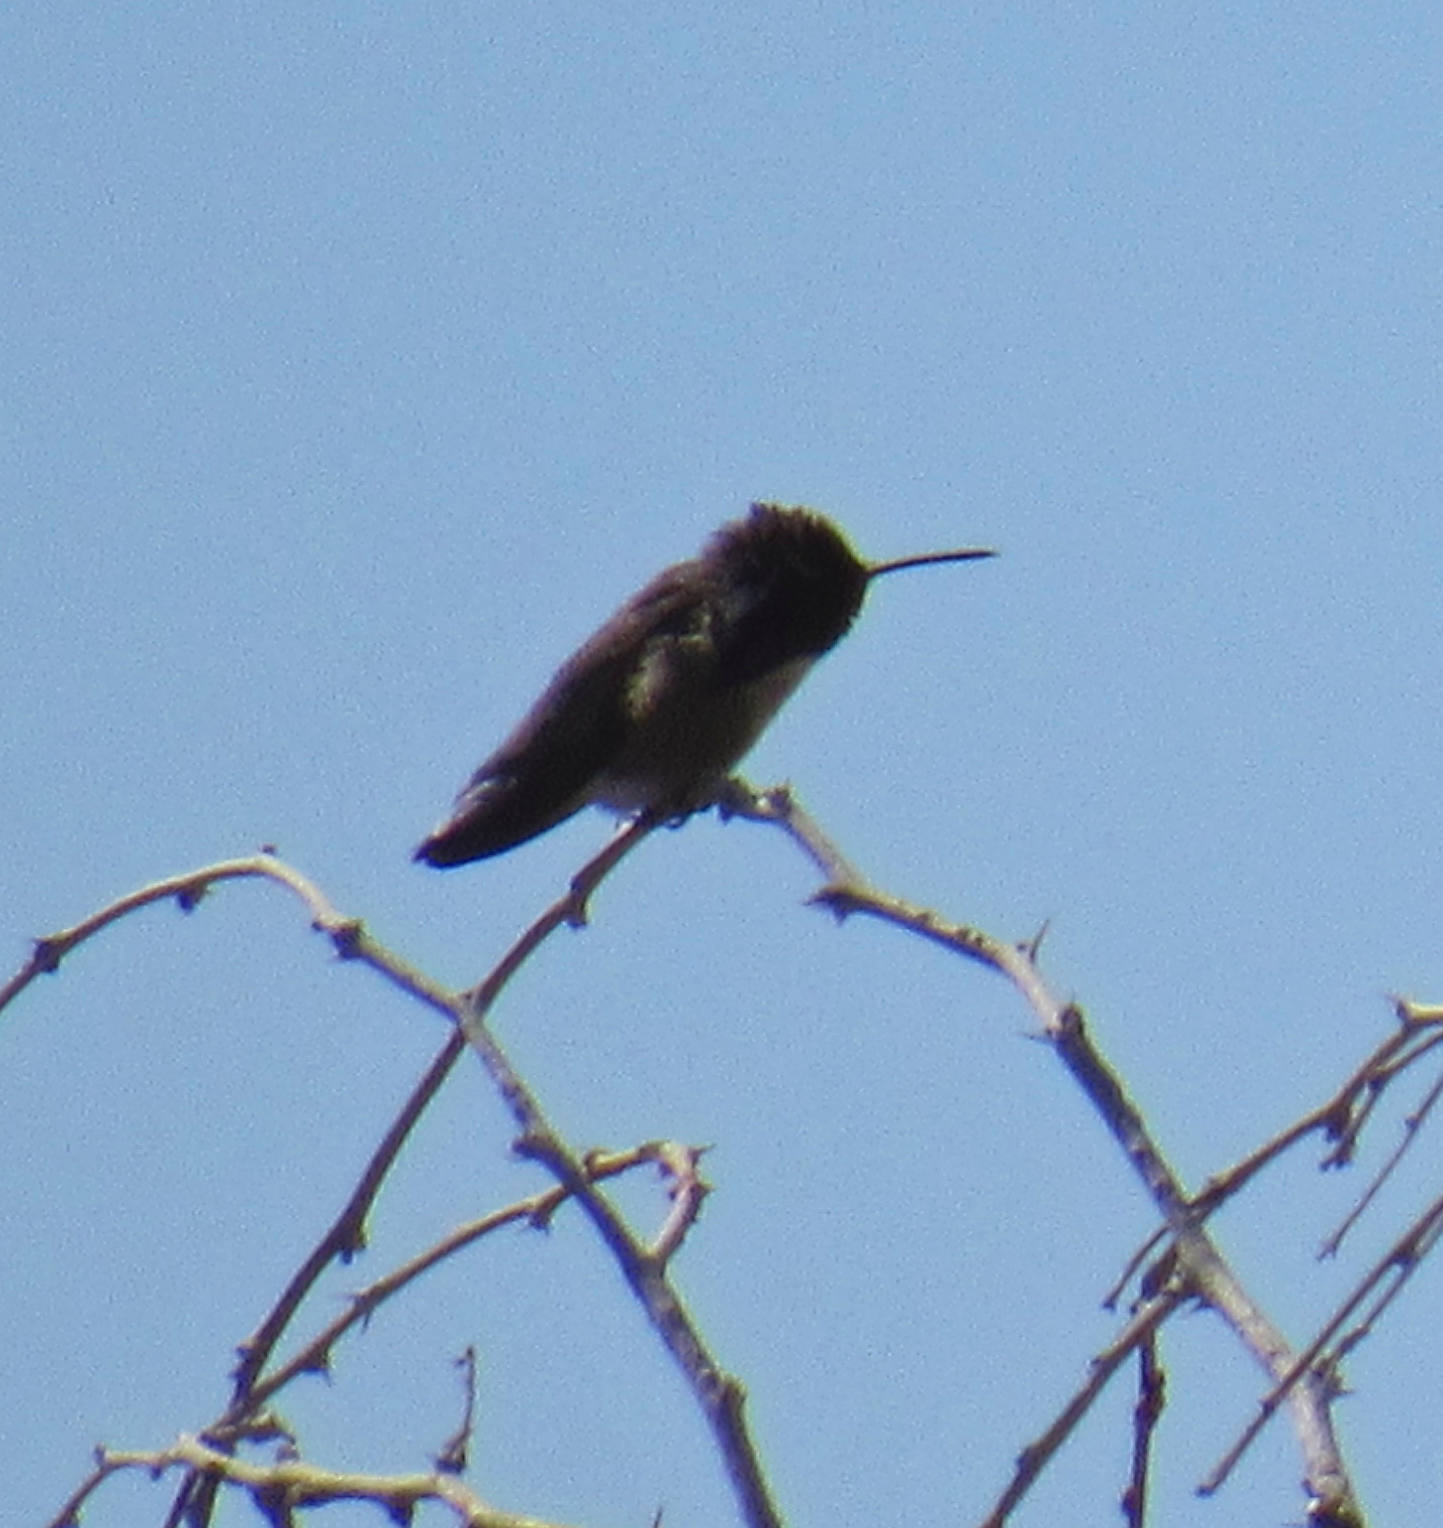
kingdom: Animalia
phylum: Chordata
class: Aves
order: Apodiformes
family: Trochilidae
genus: Calypte
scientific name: Calypte costae
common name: Costa's hummingbird
